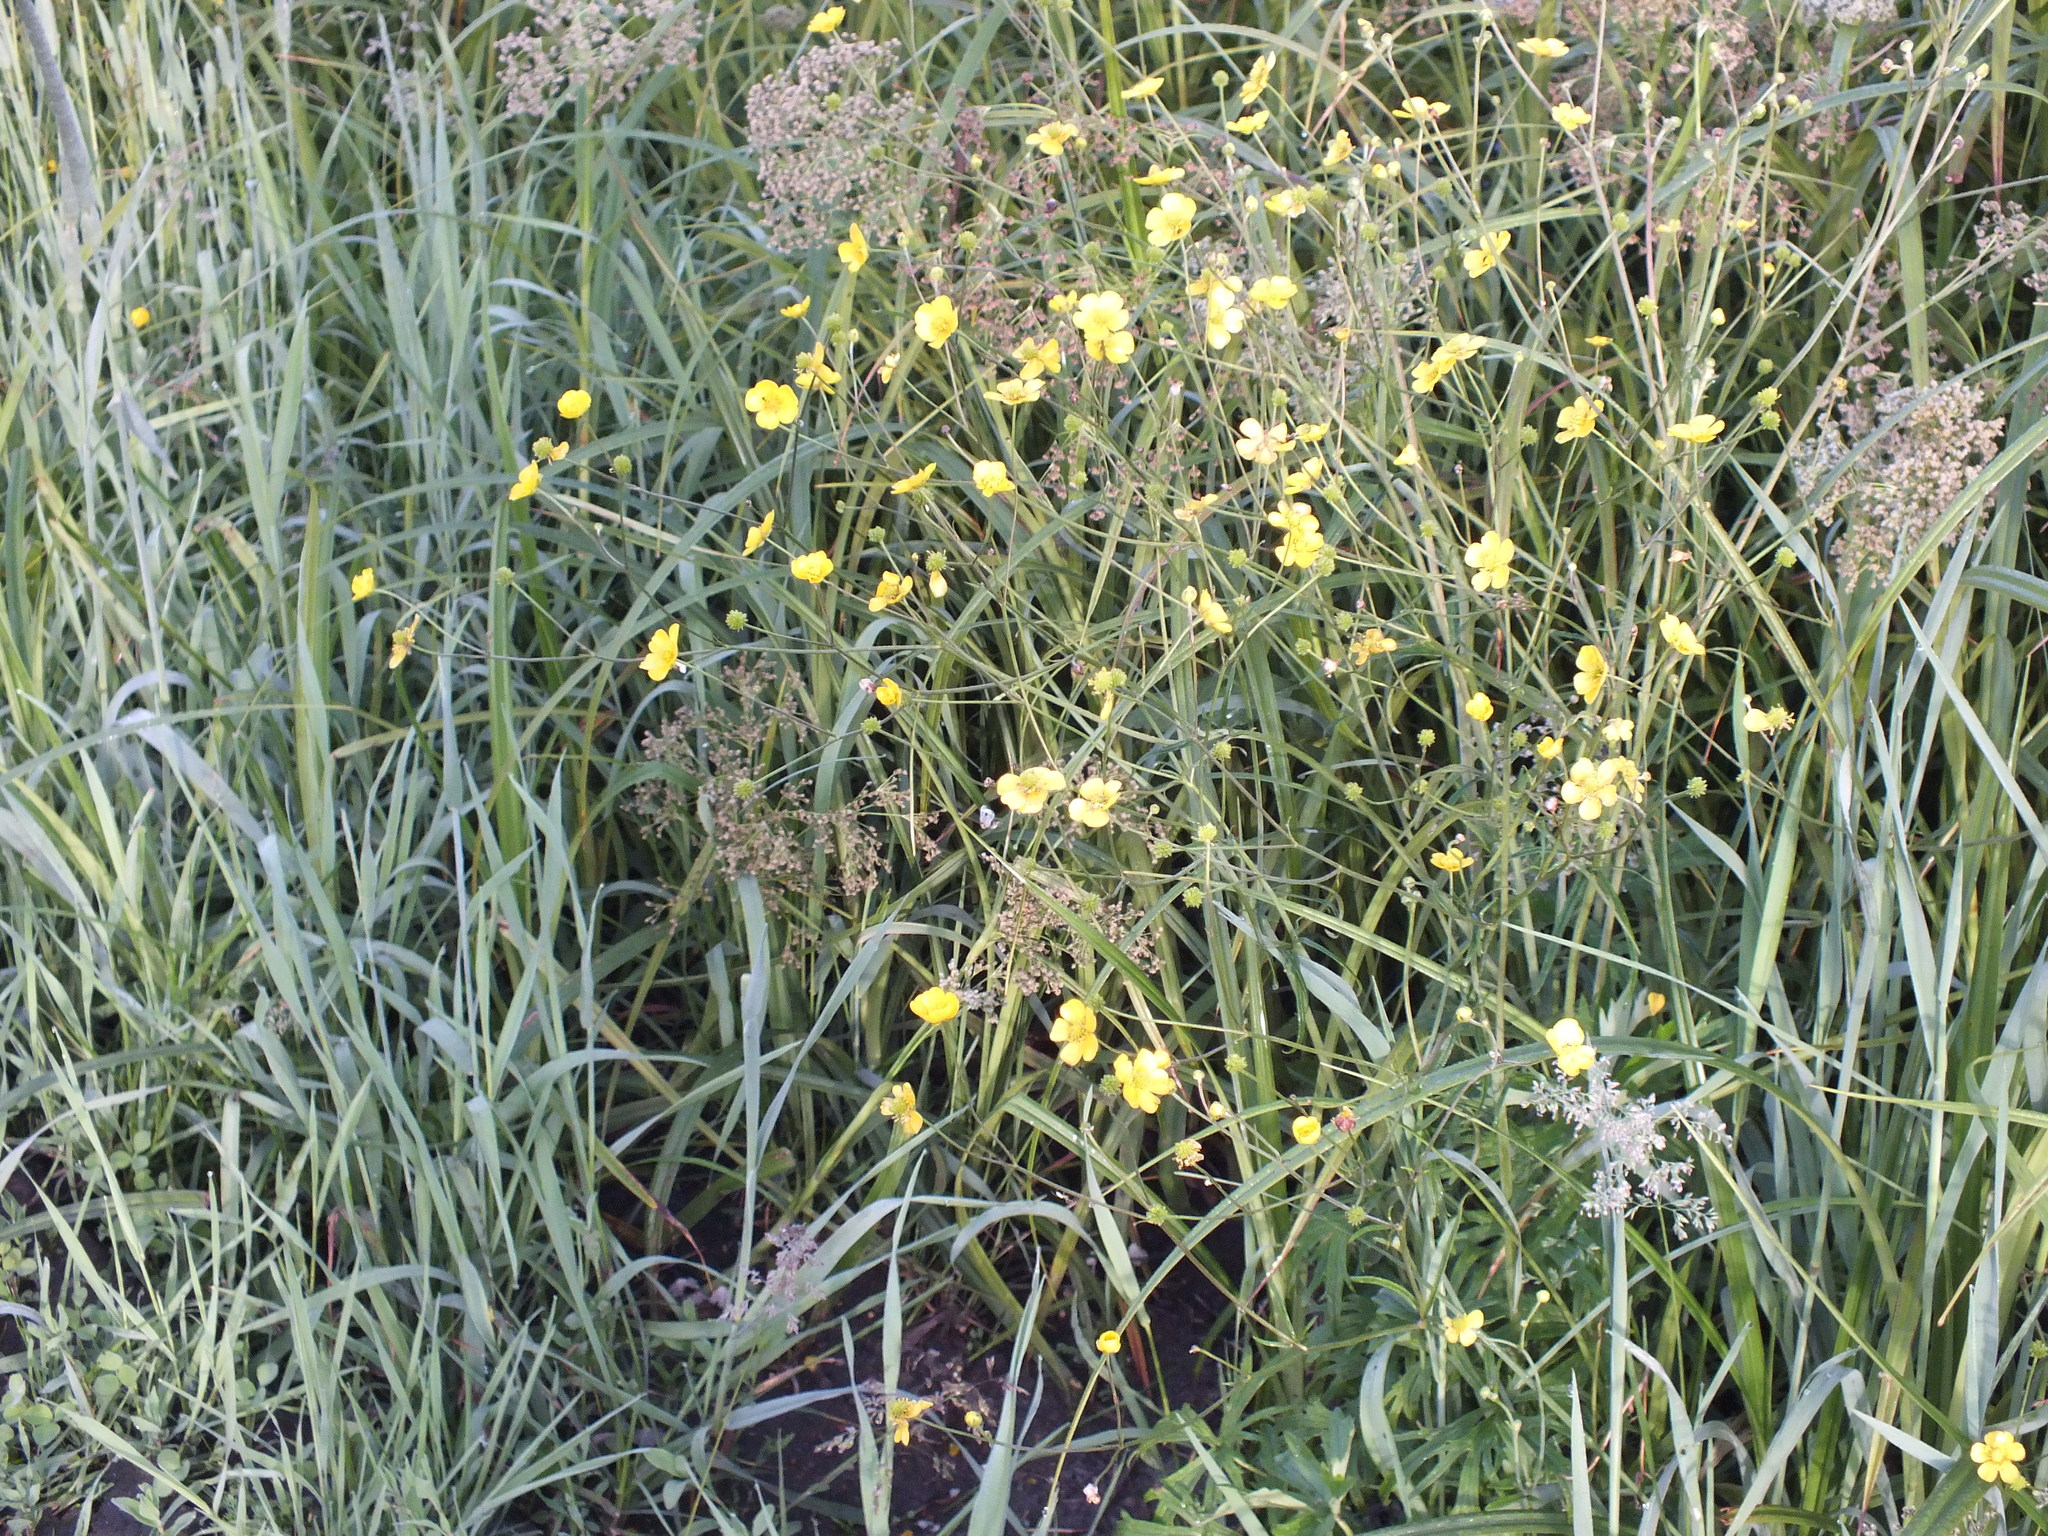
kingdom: Plantae
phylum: Tracheophyta
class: Magnoliopsida
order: Ranunculales
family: Ranunculaceae
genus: Ranunculus
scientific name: Ranunculus acris
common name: Meadow buttercup
